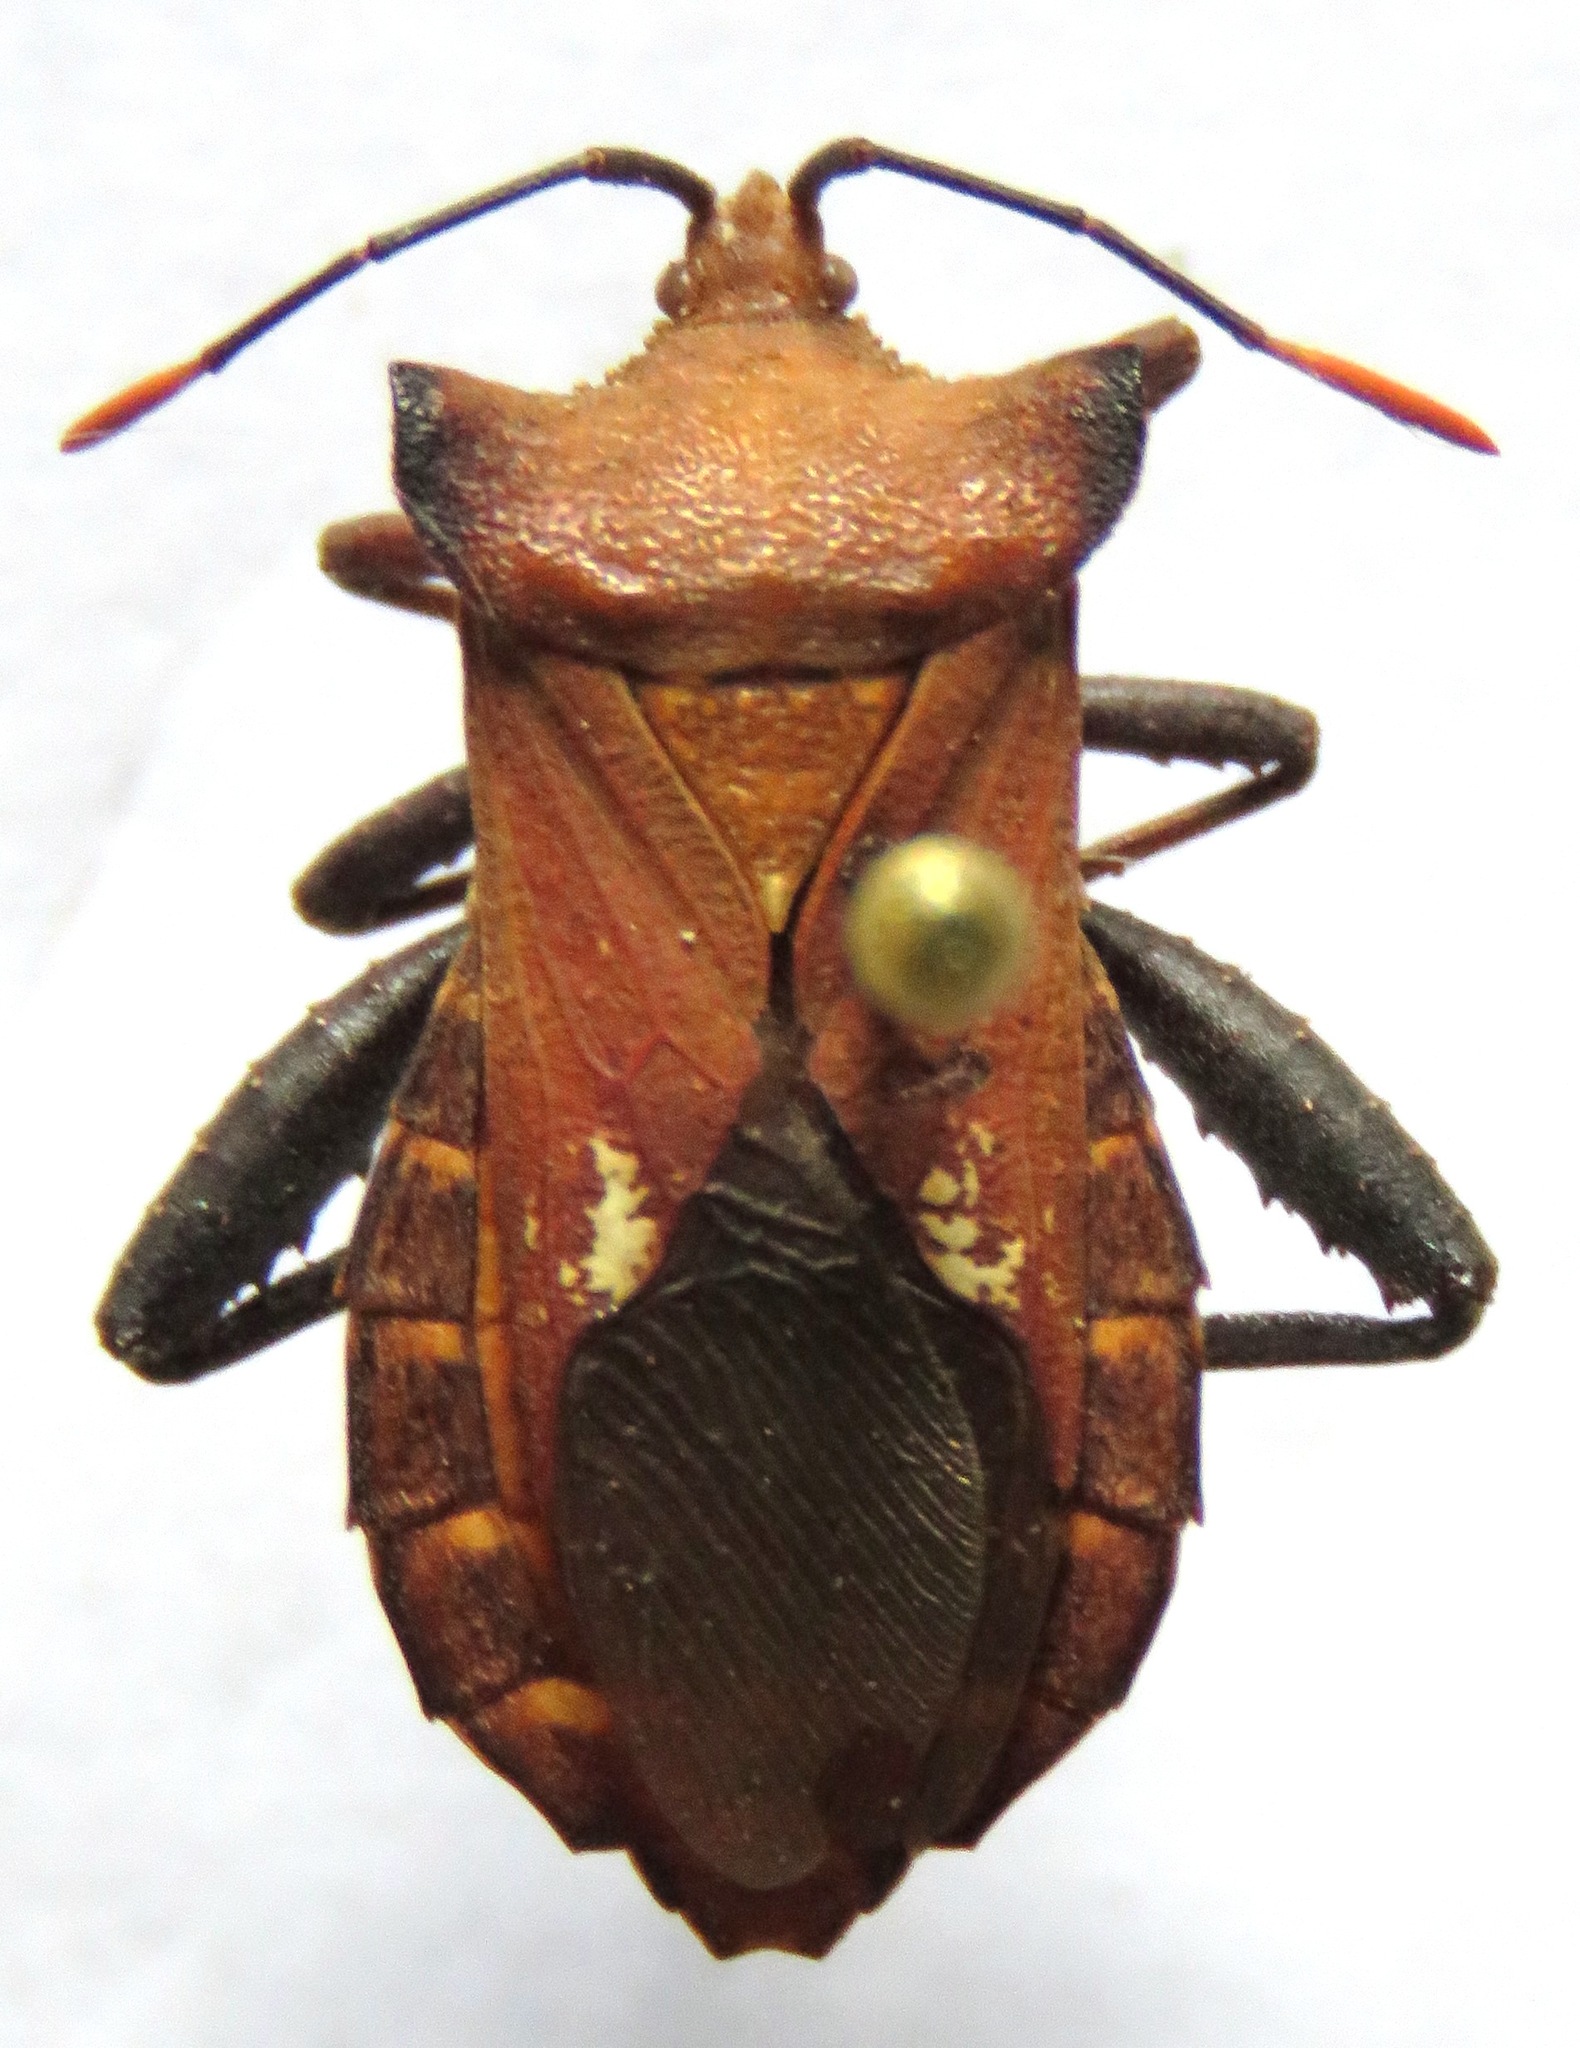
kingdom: Animalia
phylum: Arthropoda
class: Insecta
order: Hemiptera
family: Coreidae
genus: Mozena
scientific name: Mozena lurida
